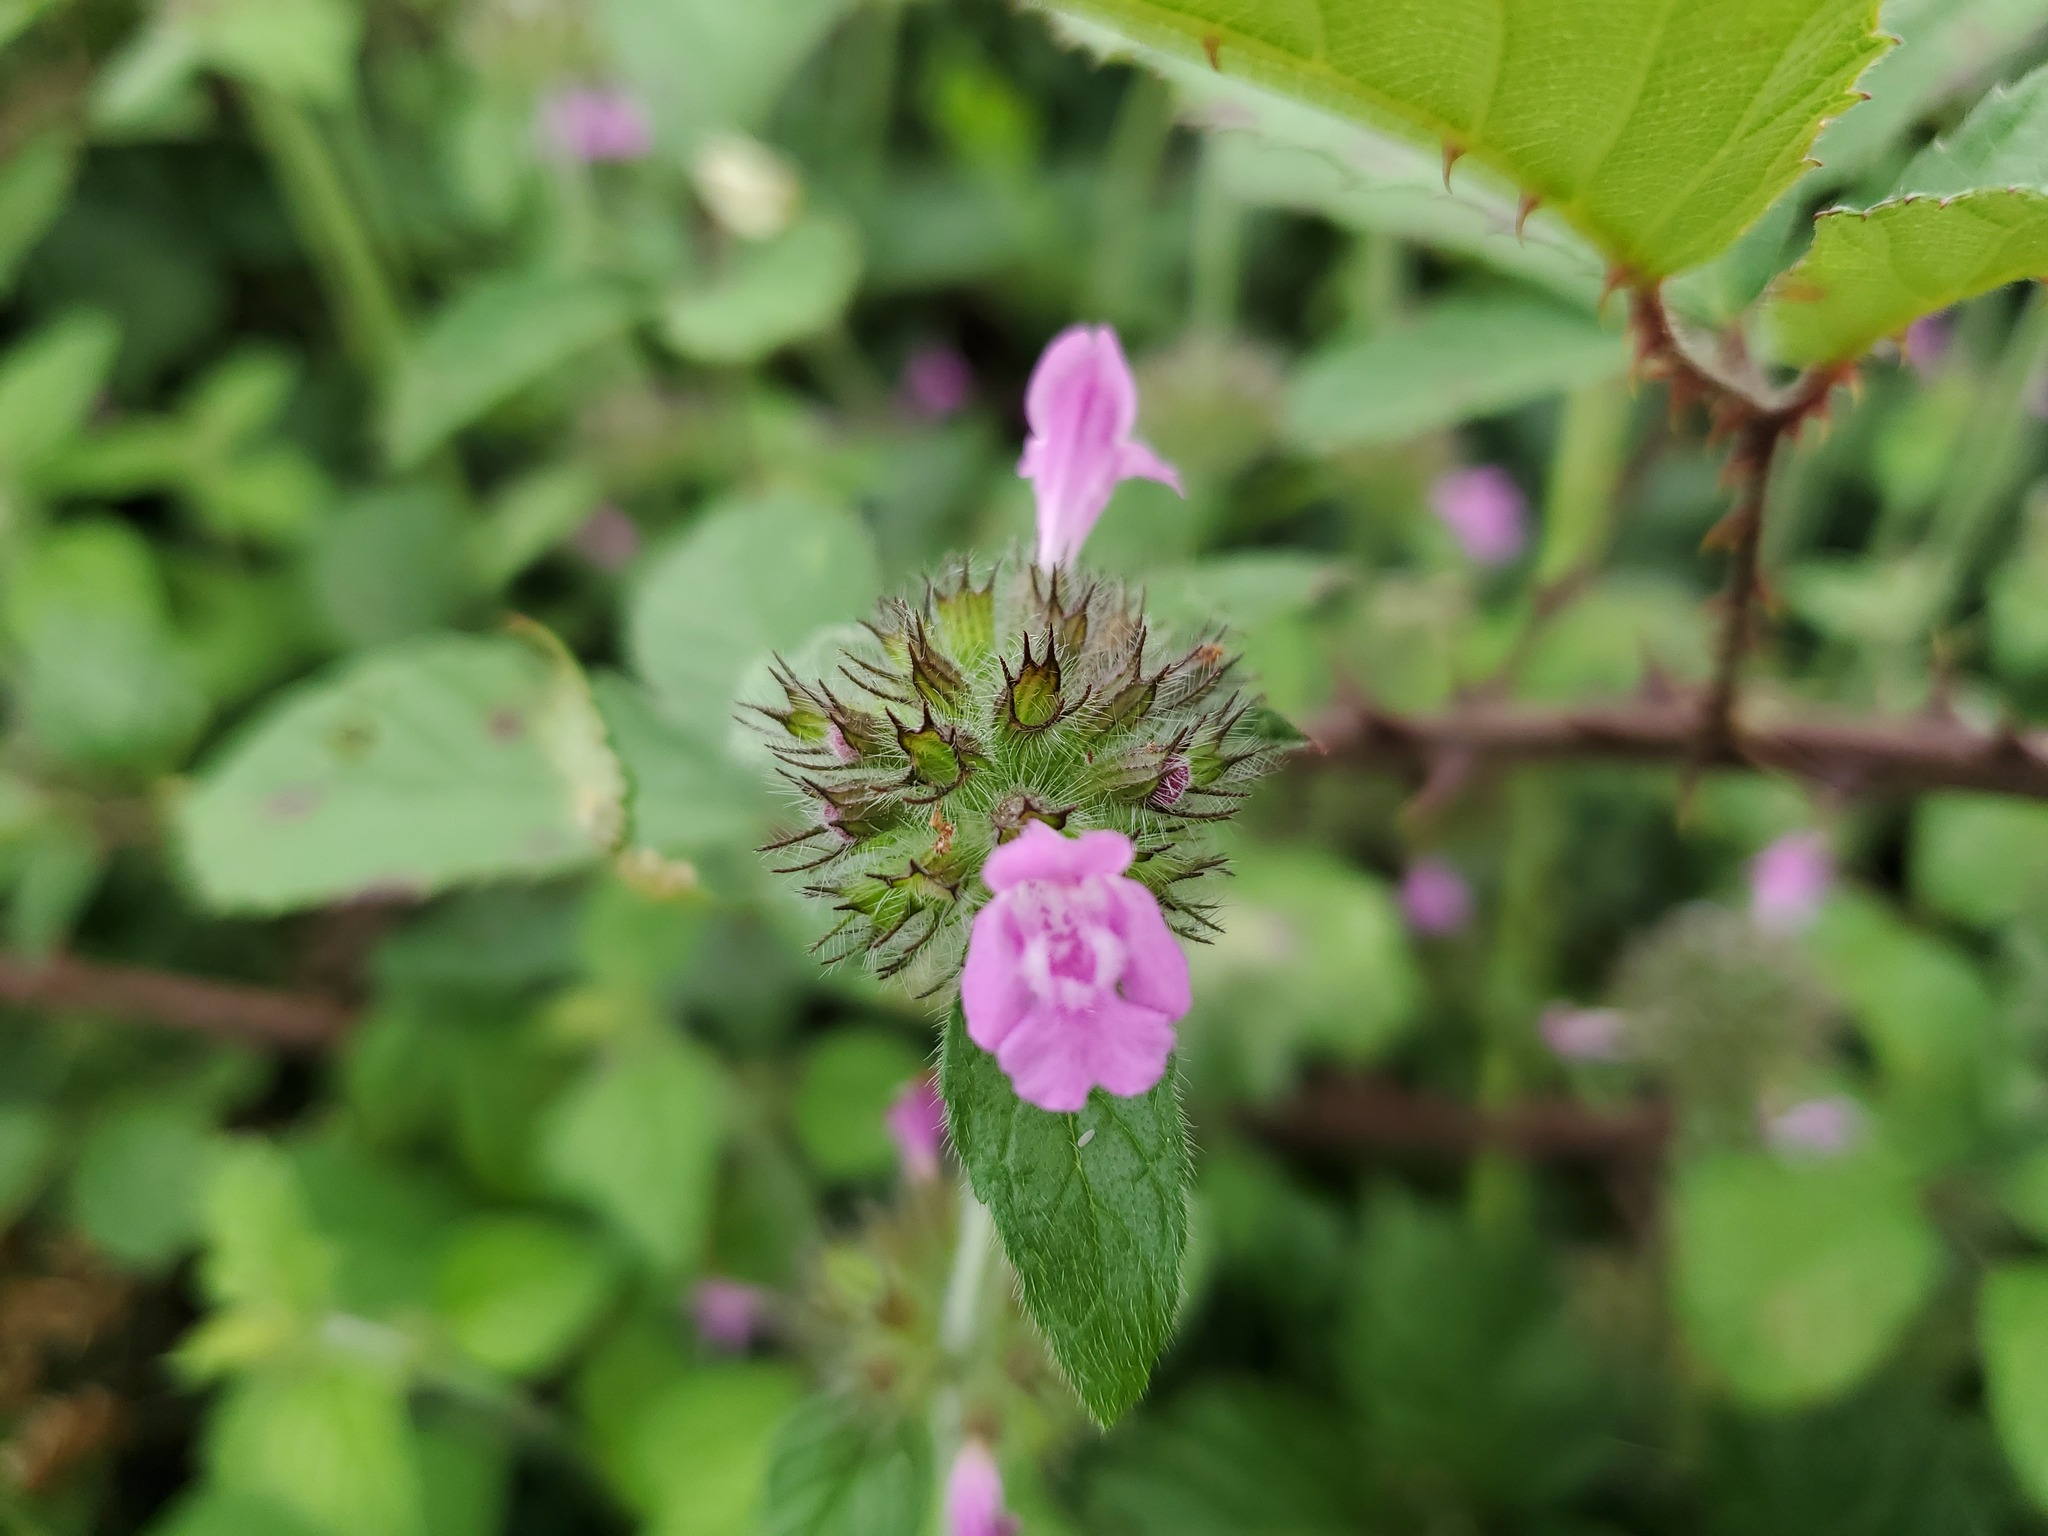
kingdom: Plantae
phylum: Tracheophyta
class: Magnoliopsida
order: Lamiales
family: Lamiaceae
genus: Clinopodium
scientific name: Clinopodium vulgare
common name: Wild basil
